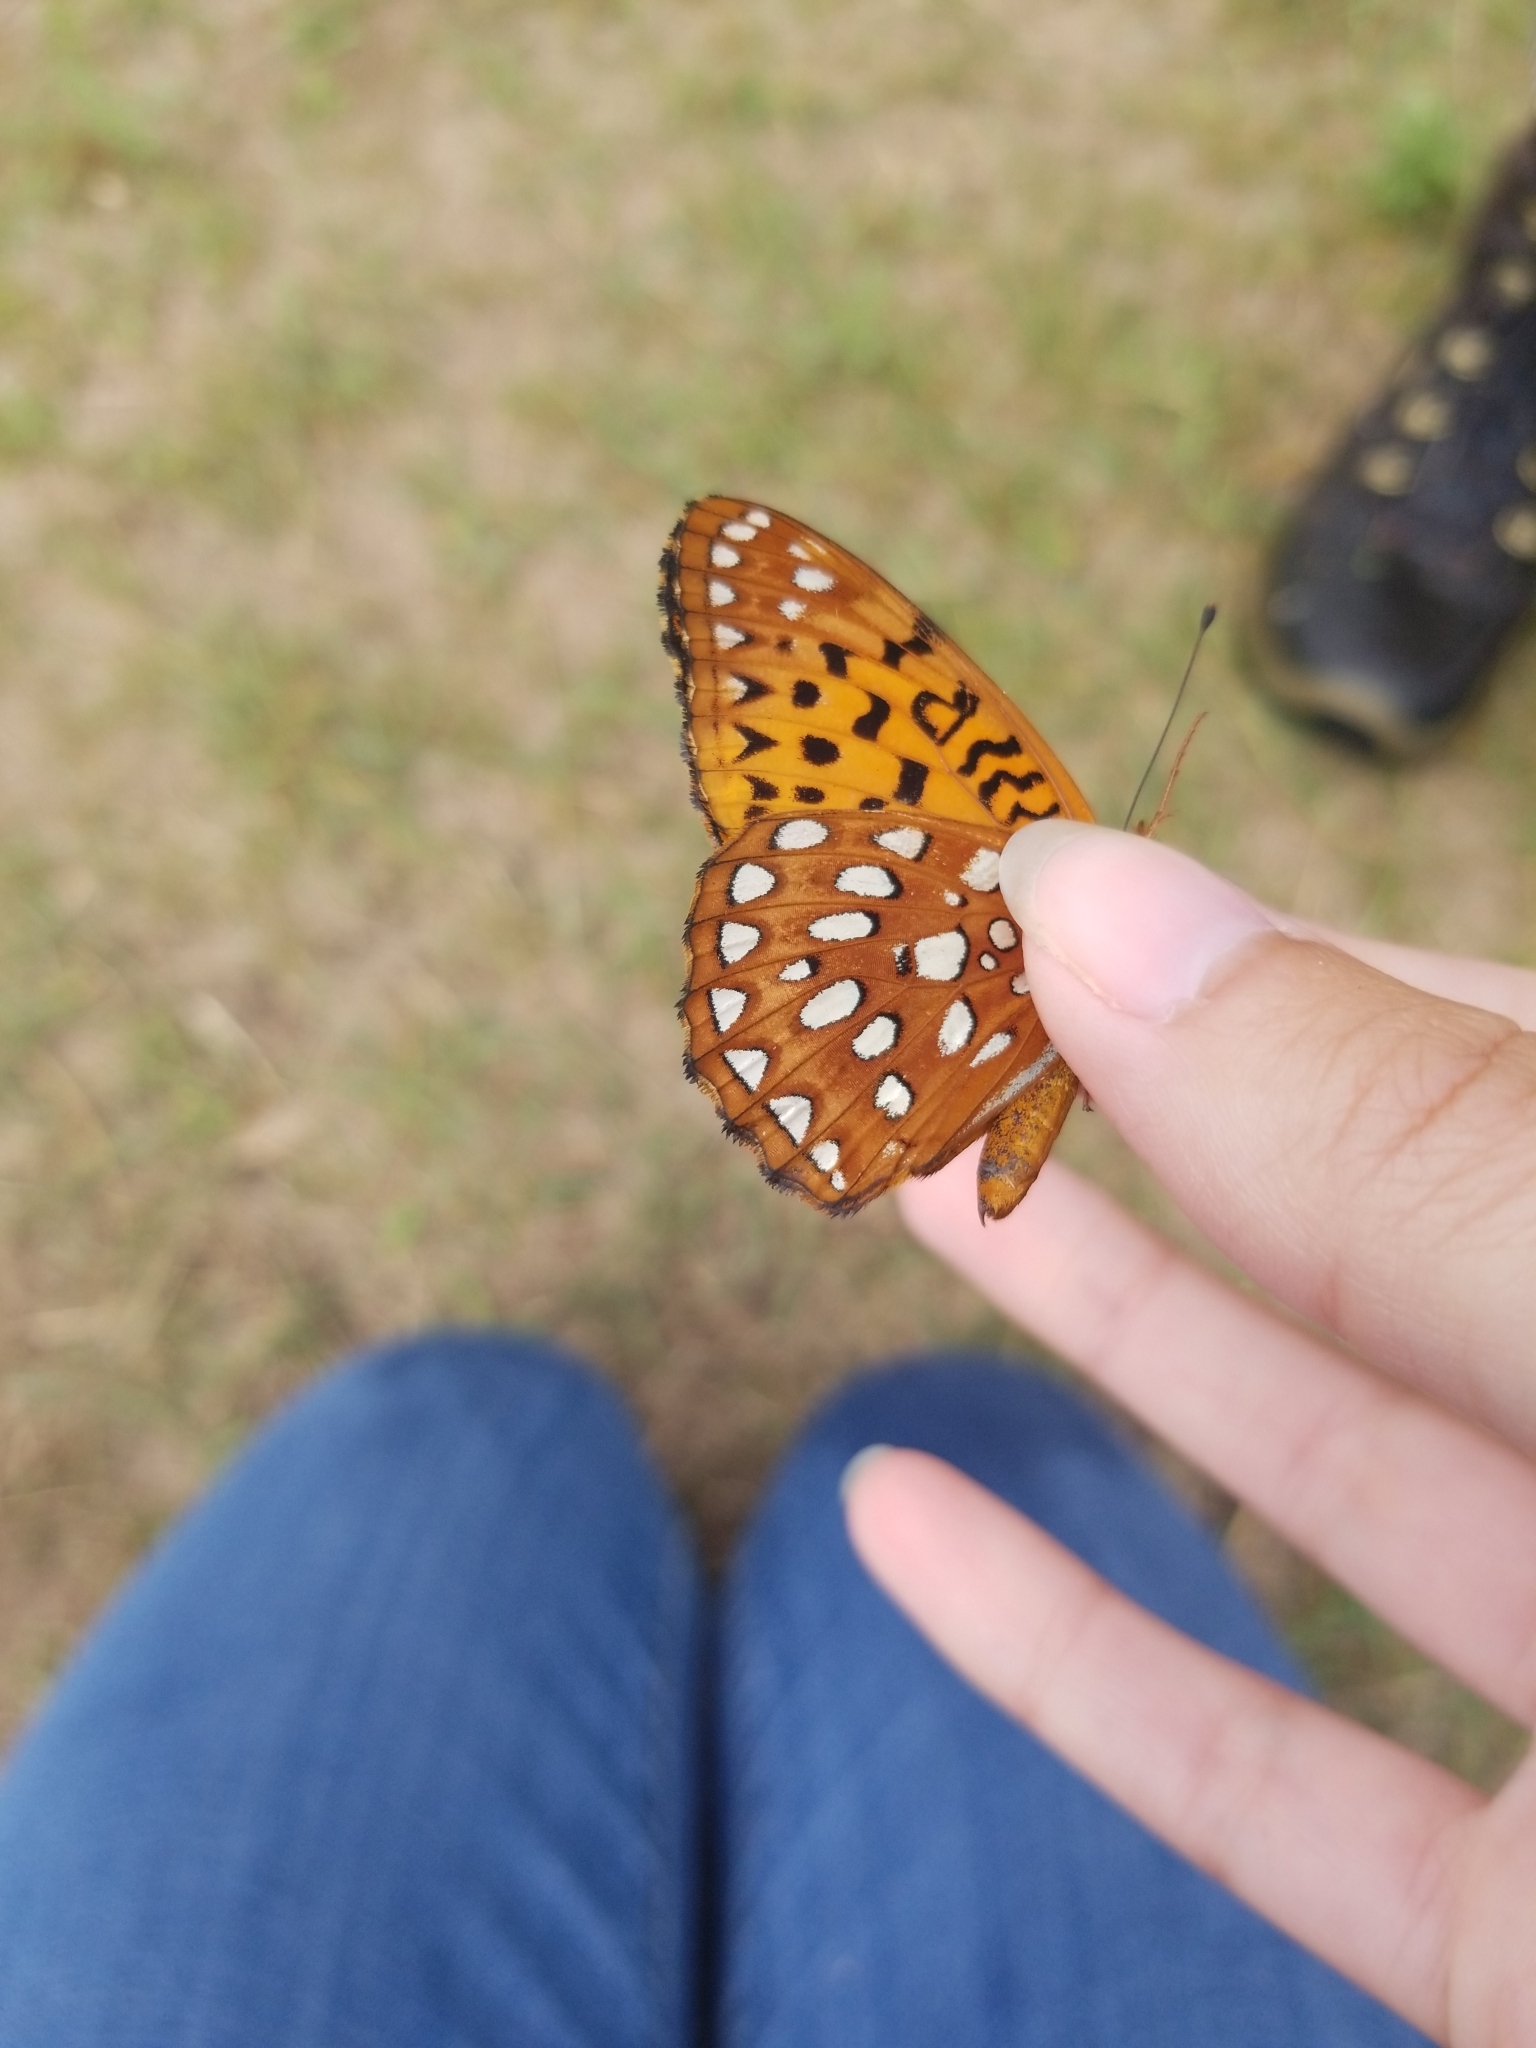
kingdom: Animalia
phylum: Arthropoda
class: Insecta
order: Lepidoptera
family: Nymphalidae
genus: Speyeria
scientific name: Speyeria aphrodite
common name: Aphrodite friitllary
